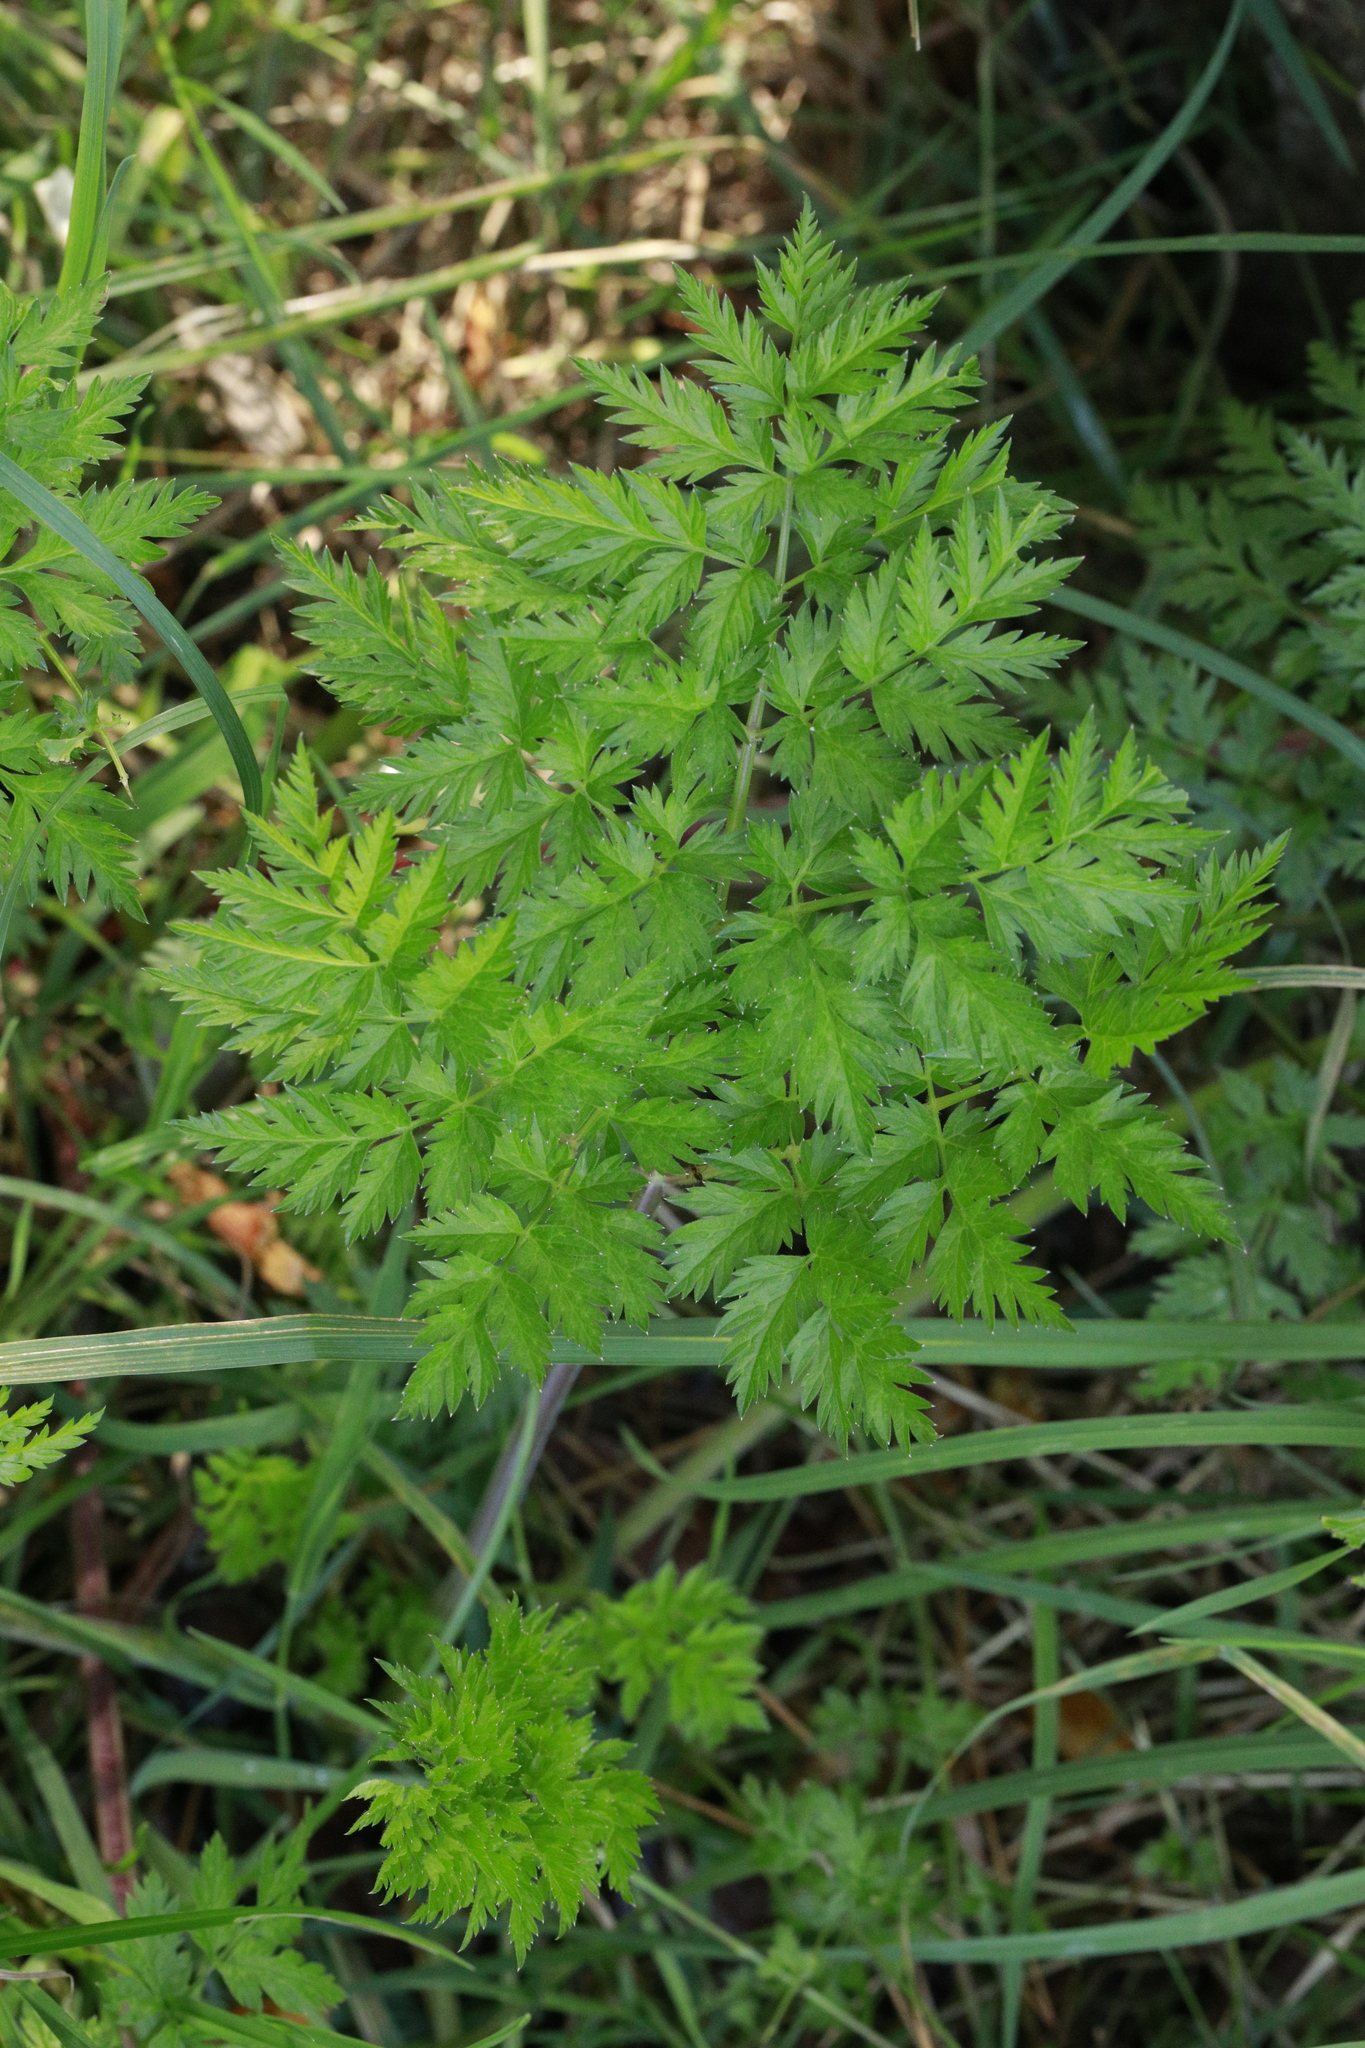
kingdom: Plantae
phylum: Tracheophyta
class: Magnoliopsida
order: Apiales
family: Apiaceae
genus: Anthriscus
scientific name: Anthriscus sylvestris
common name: Cow parsley
